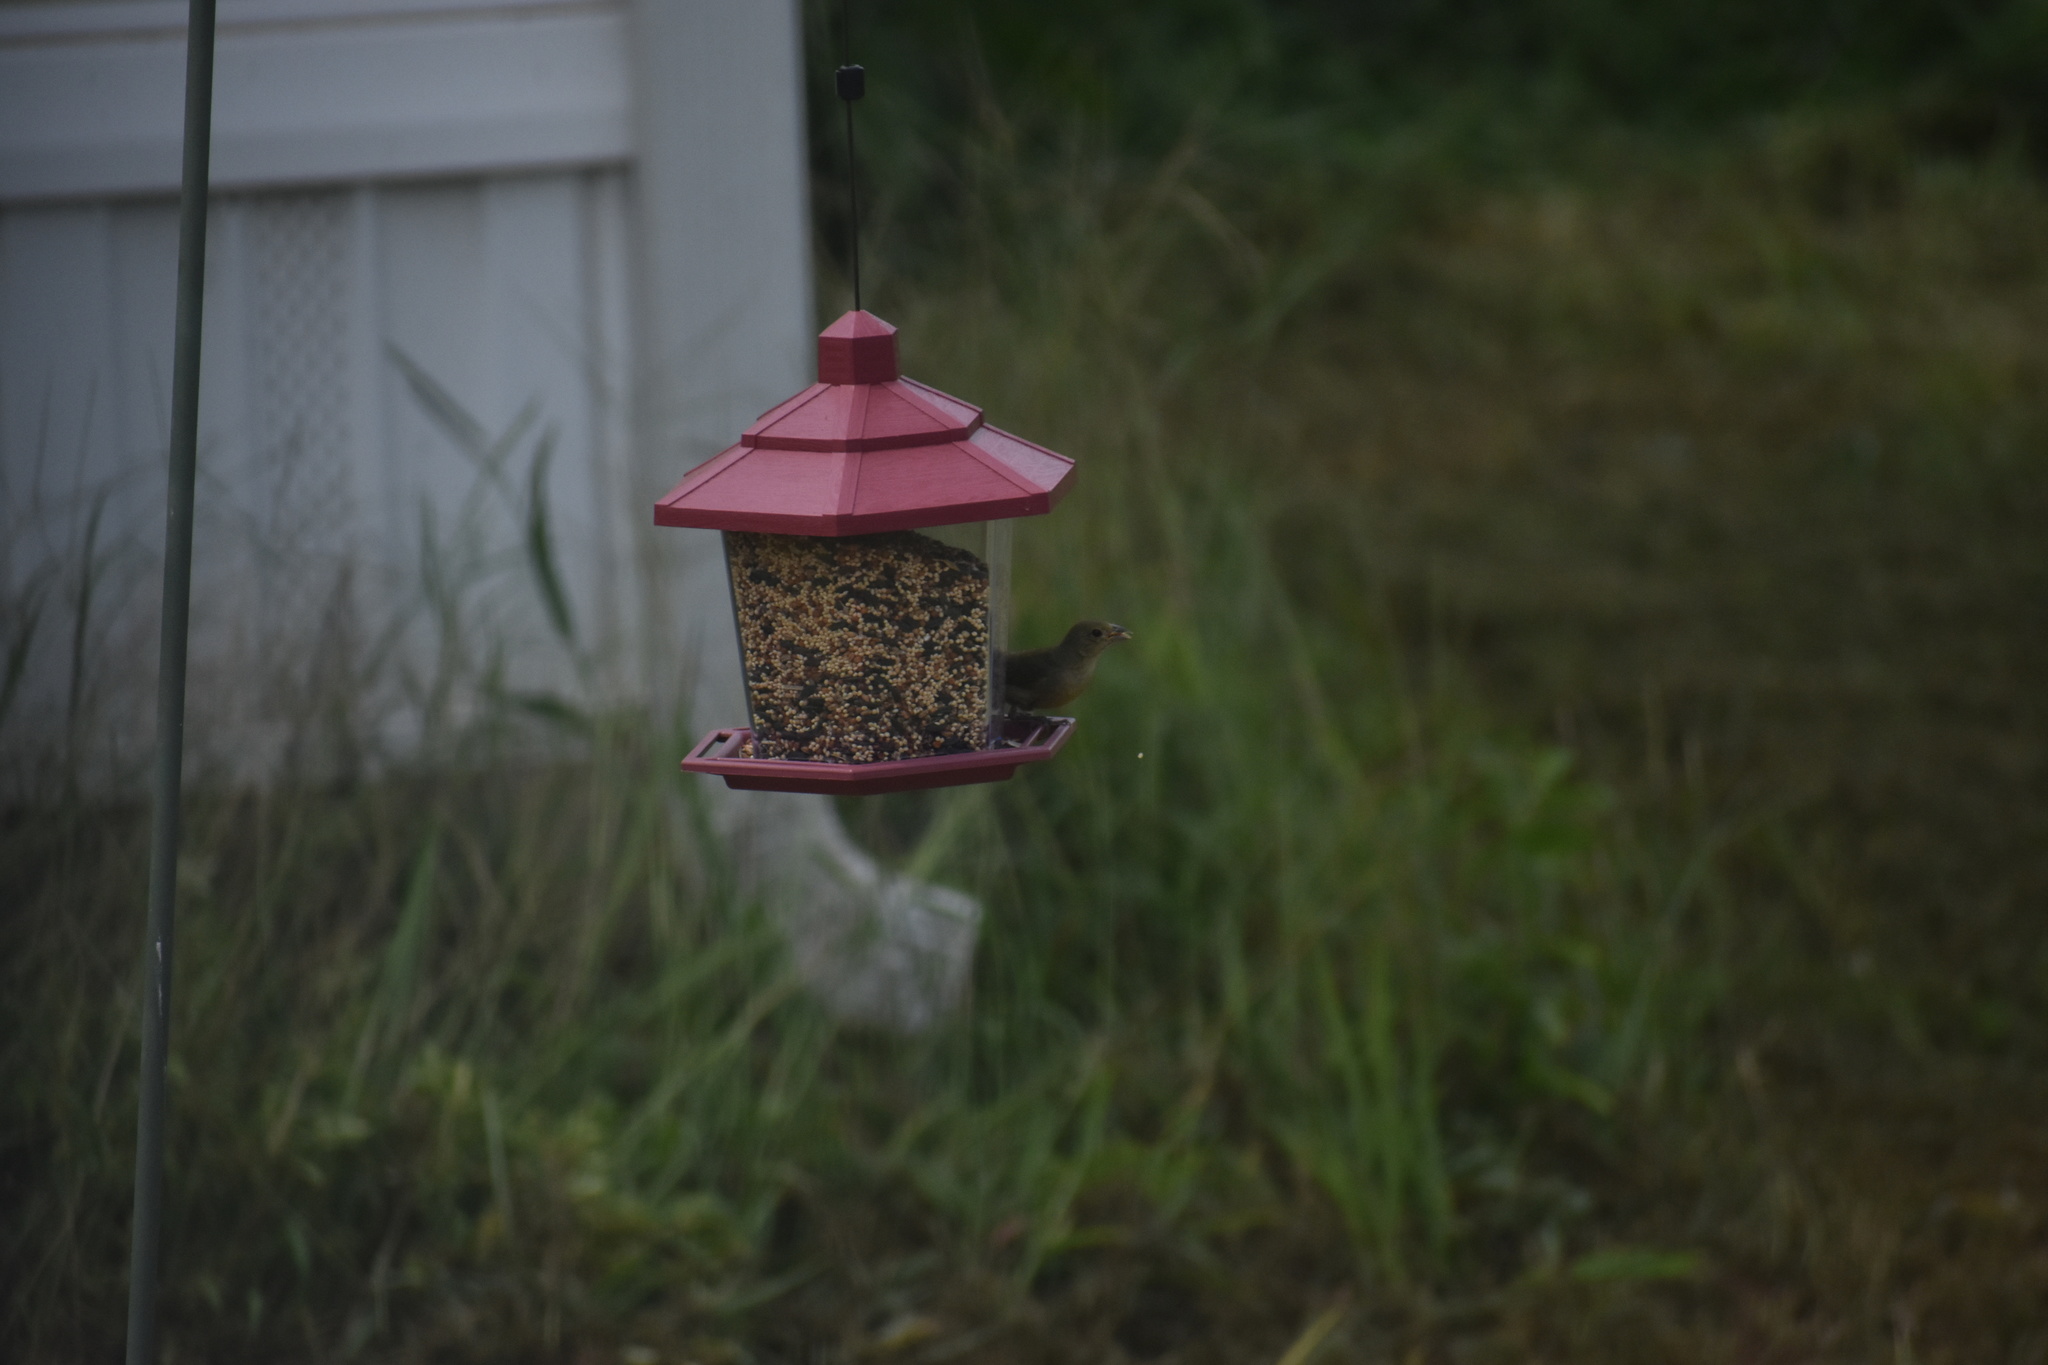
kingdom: Animalia
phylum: Chordata
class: Aves
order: Passeriformes
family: Cardinalidae
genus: Passerina
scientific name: Passerina ciris
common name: Painted bunting
